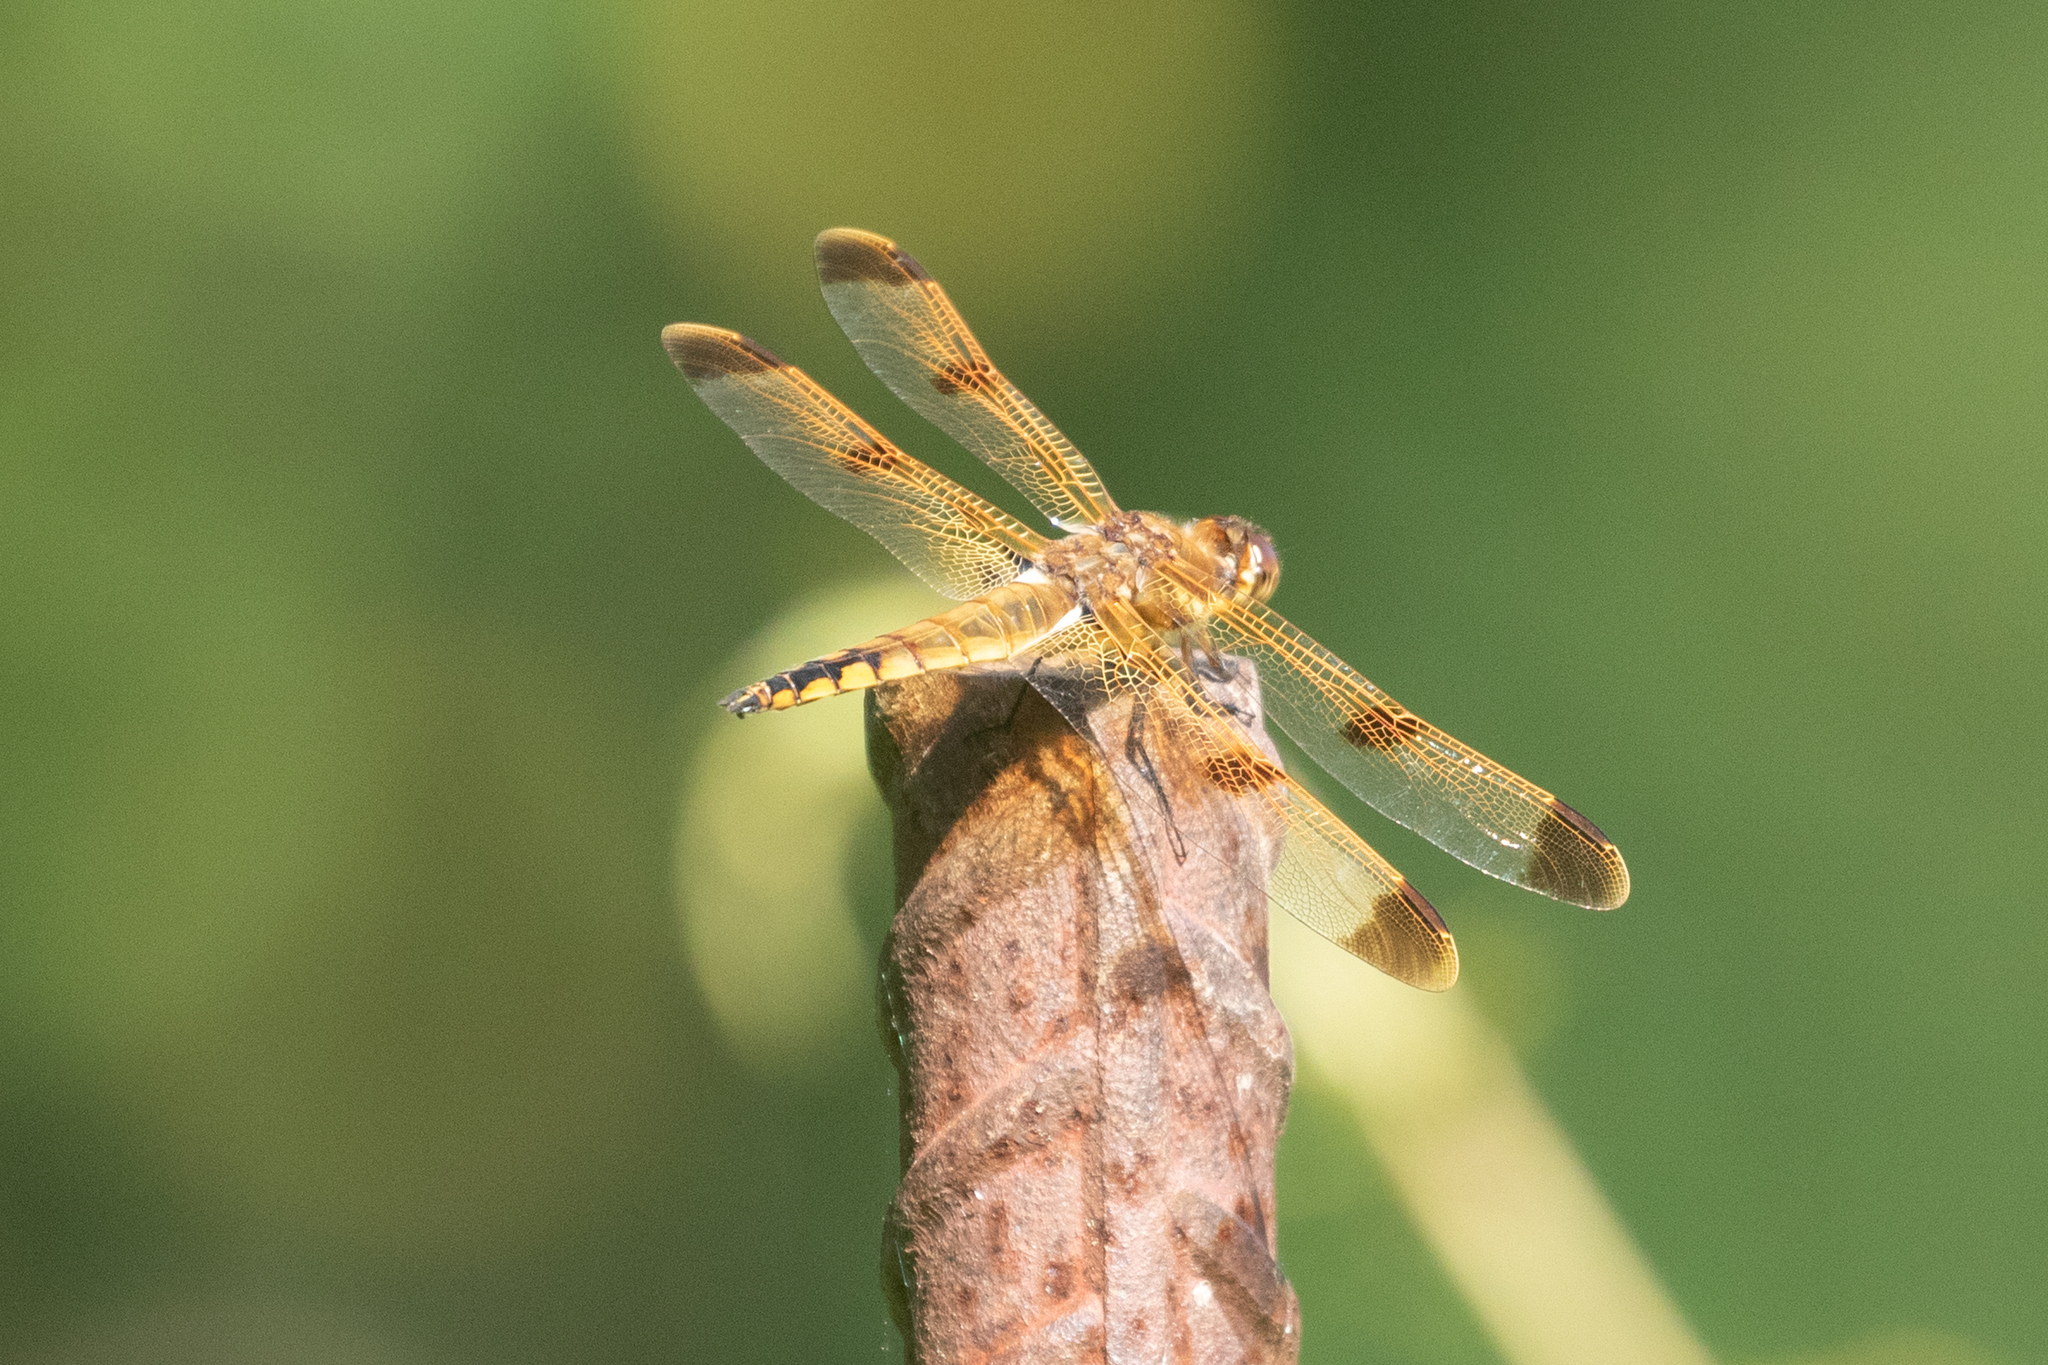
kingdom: Animalia
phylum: Arthropoda
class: Insecta
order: Odonata
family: Libellulidae
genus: Libellula
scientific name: Libellula semifasciata
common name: Painted skimmer
